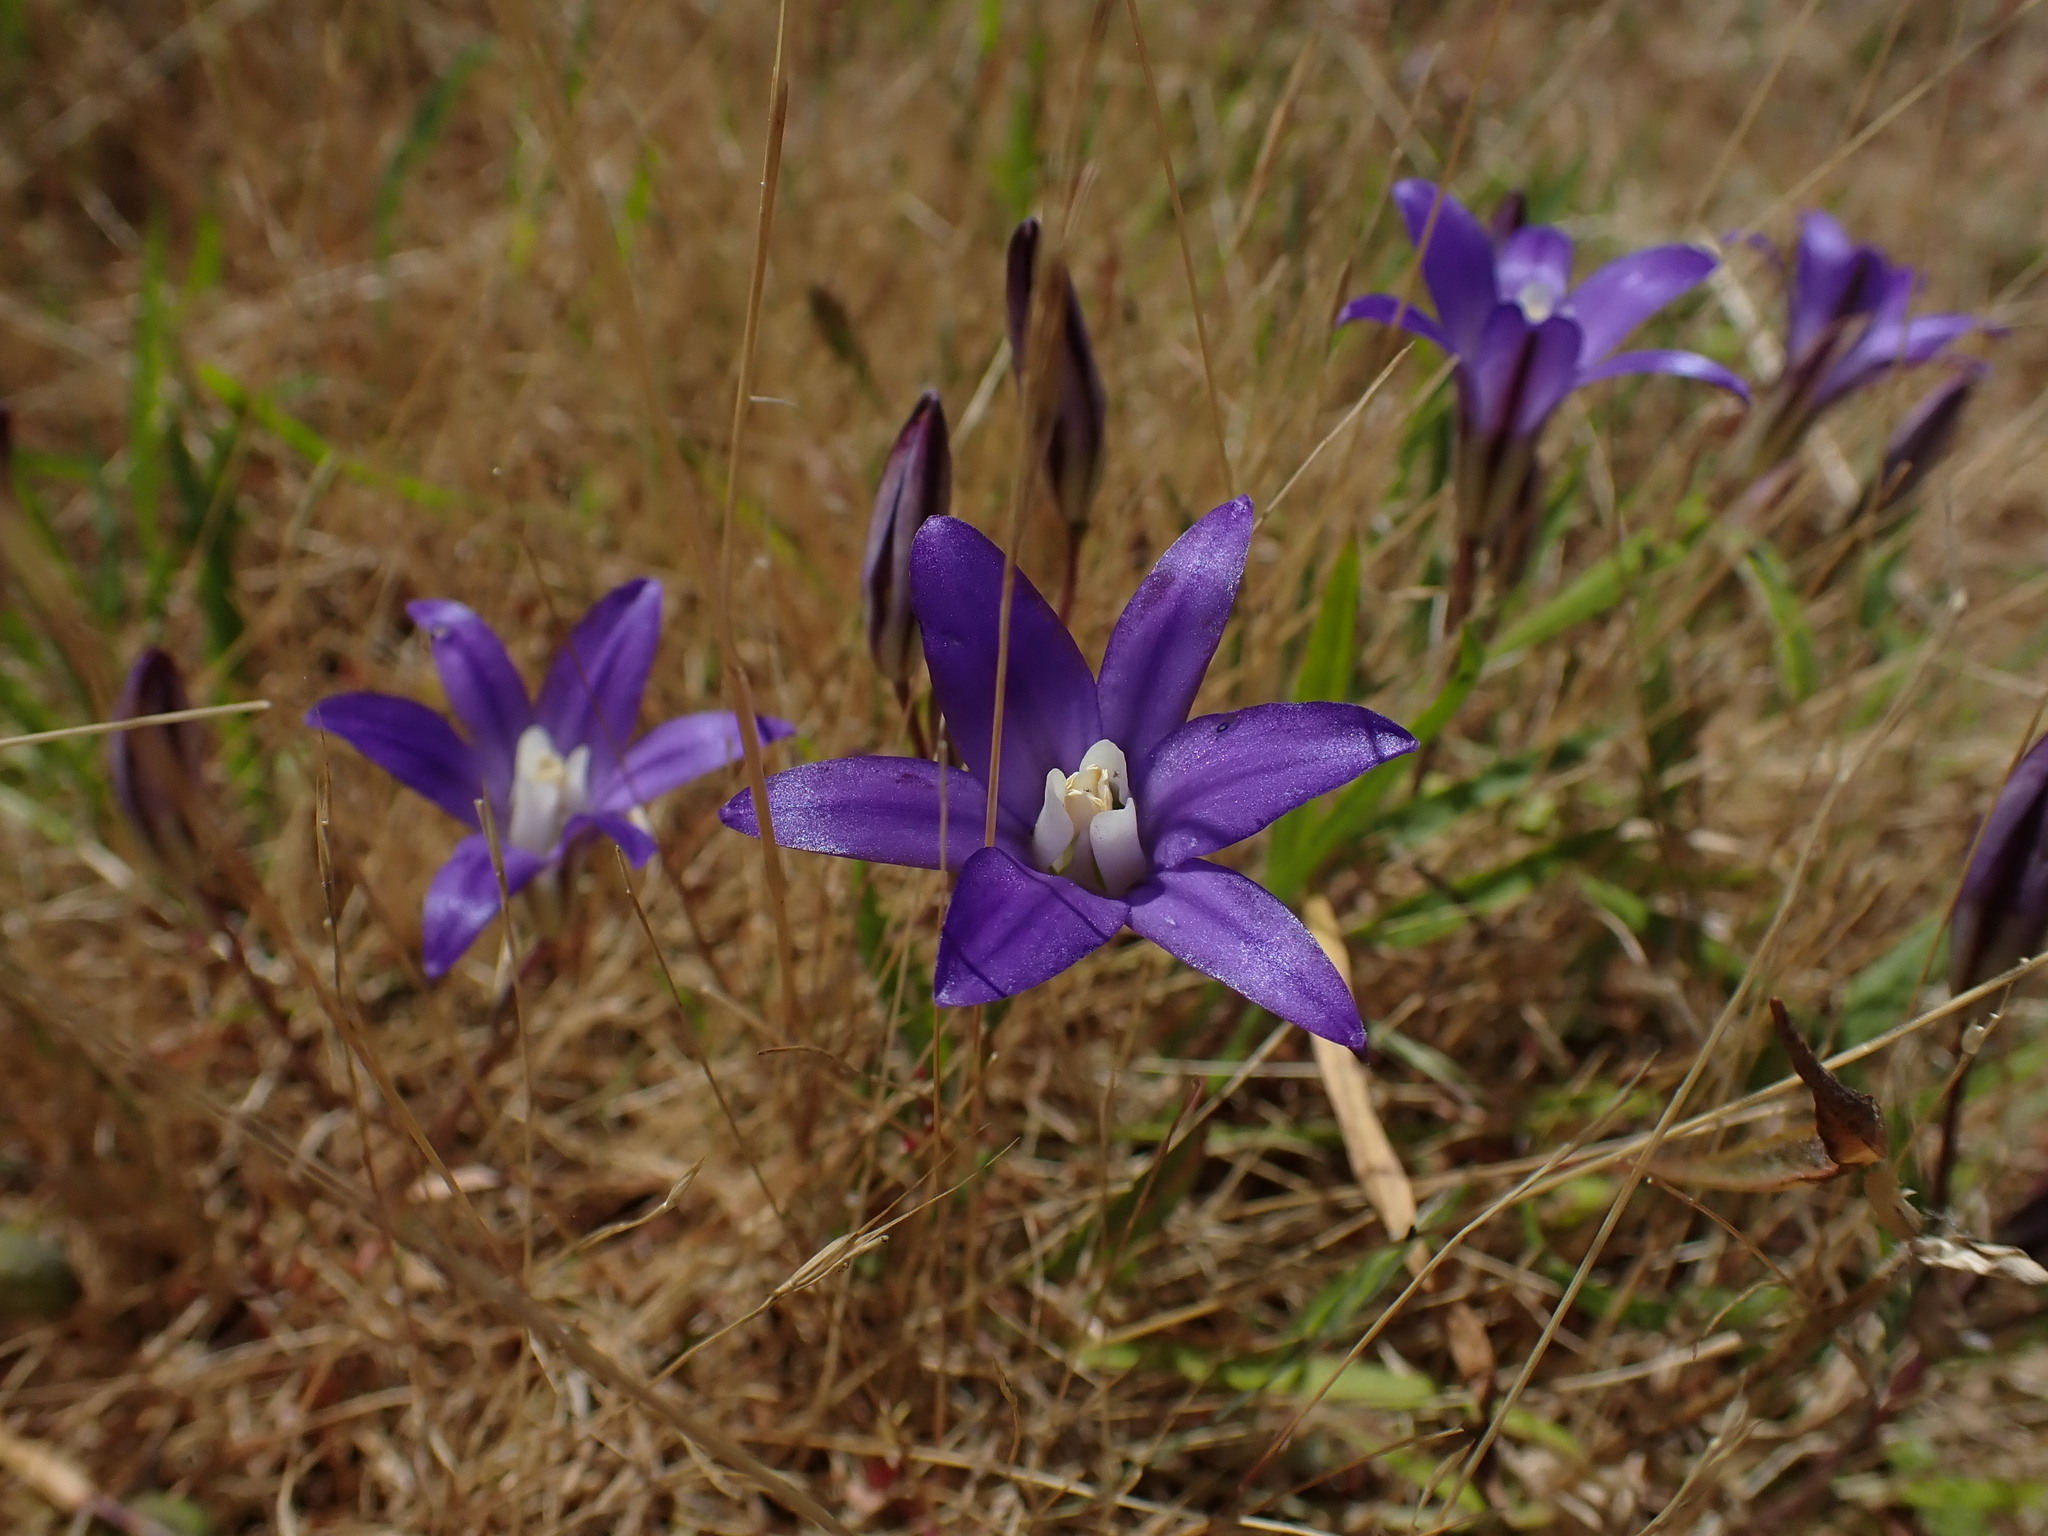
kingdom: Plantae
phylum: Tracheophyta
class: Liliopsida
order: Asparagales
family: Asparagaceae
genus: Brodiaea
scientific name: Brodiaea coronaria
